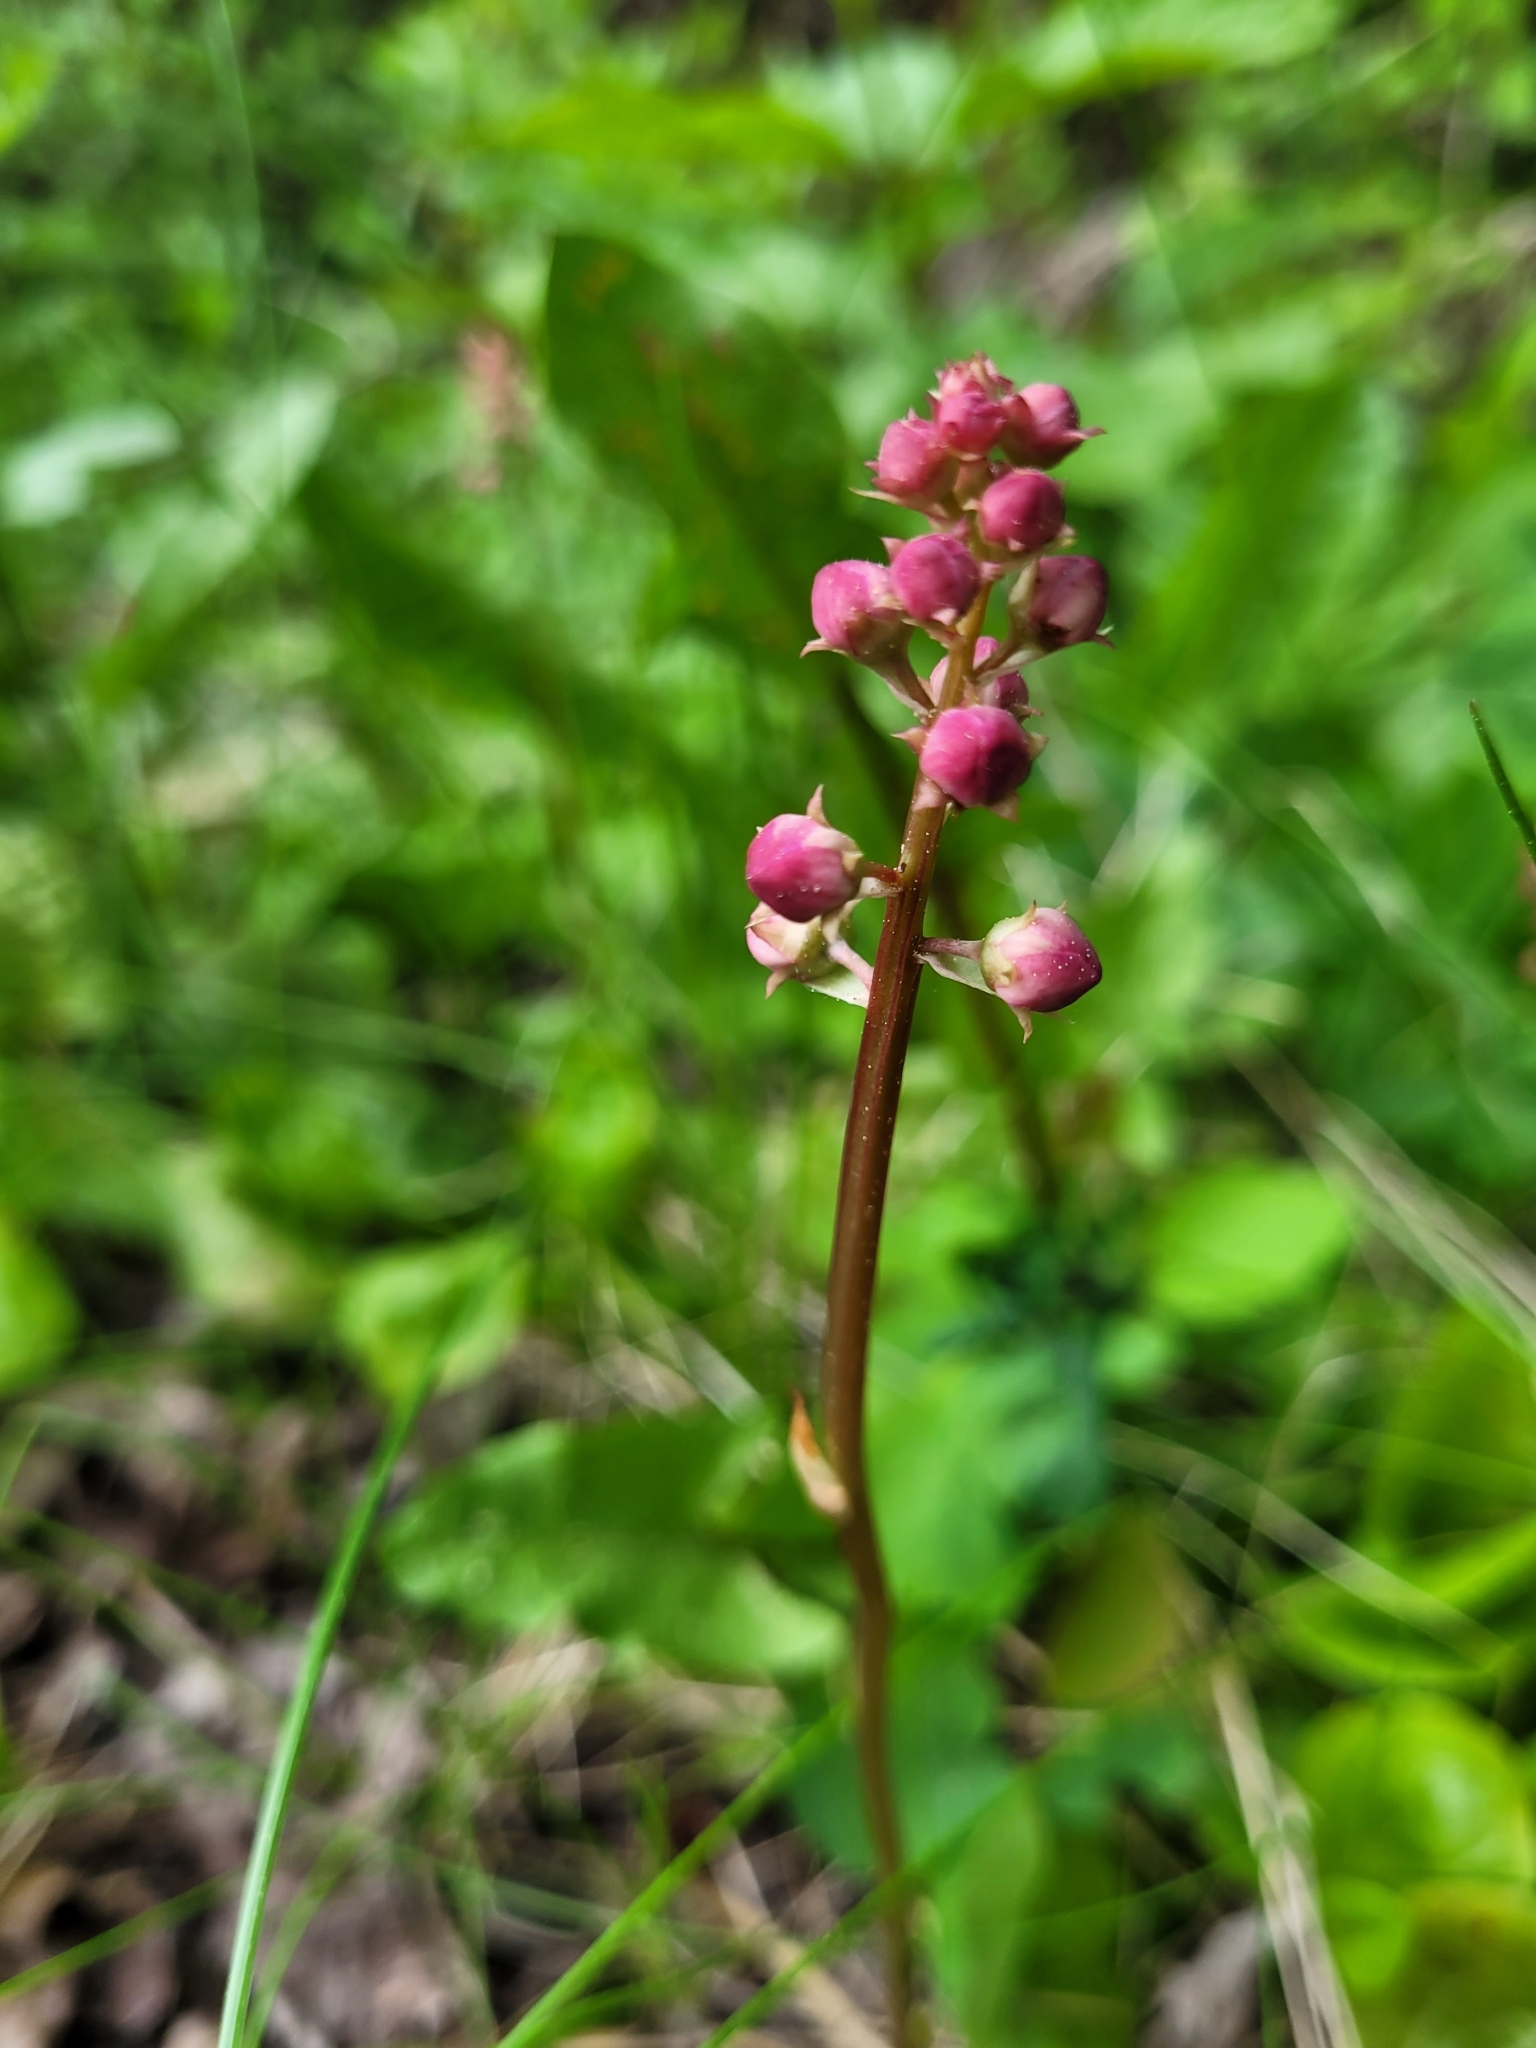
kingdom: Plantae
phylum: Tracheophyta
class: Magnoliopsida
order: Ericales
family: Ericaceae
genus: Pyrola
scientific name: Pyrola asarifolia
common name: Bog wintergreen
